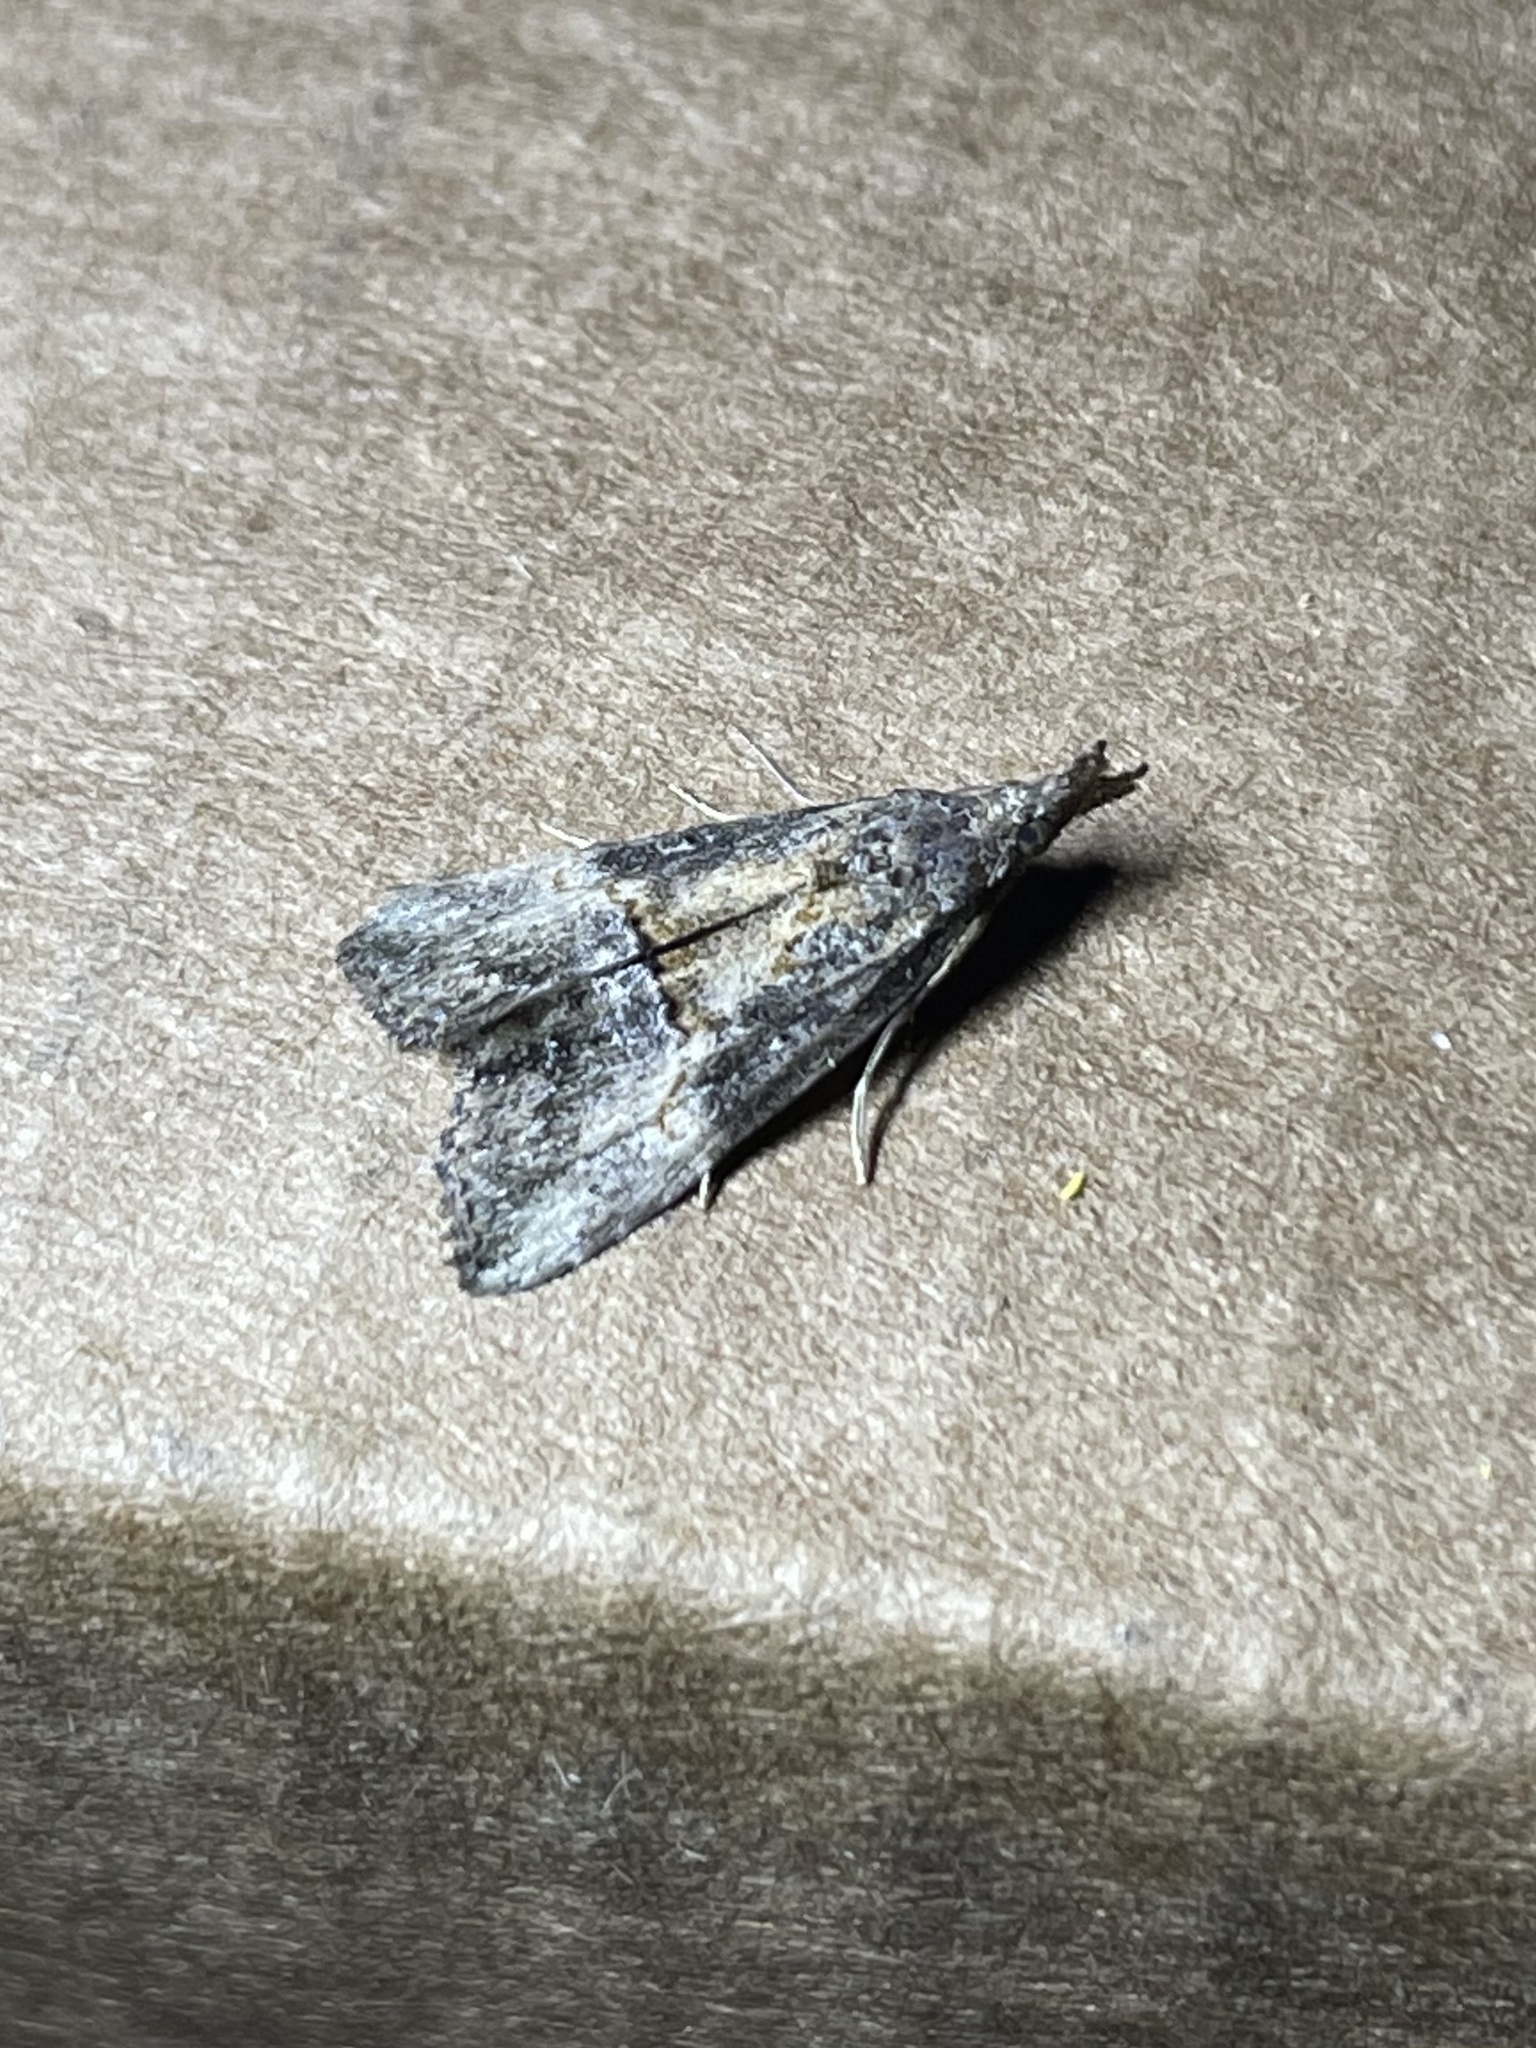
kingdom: Animalia
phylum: Arthropoda
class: Insecta
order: Lepidoptera
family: Erebidae
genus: Hypena
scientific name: Hypena scabra
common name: Green cloverworm
